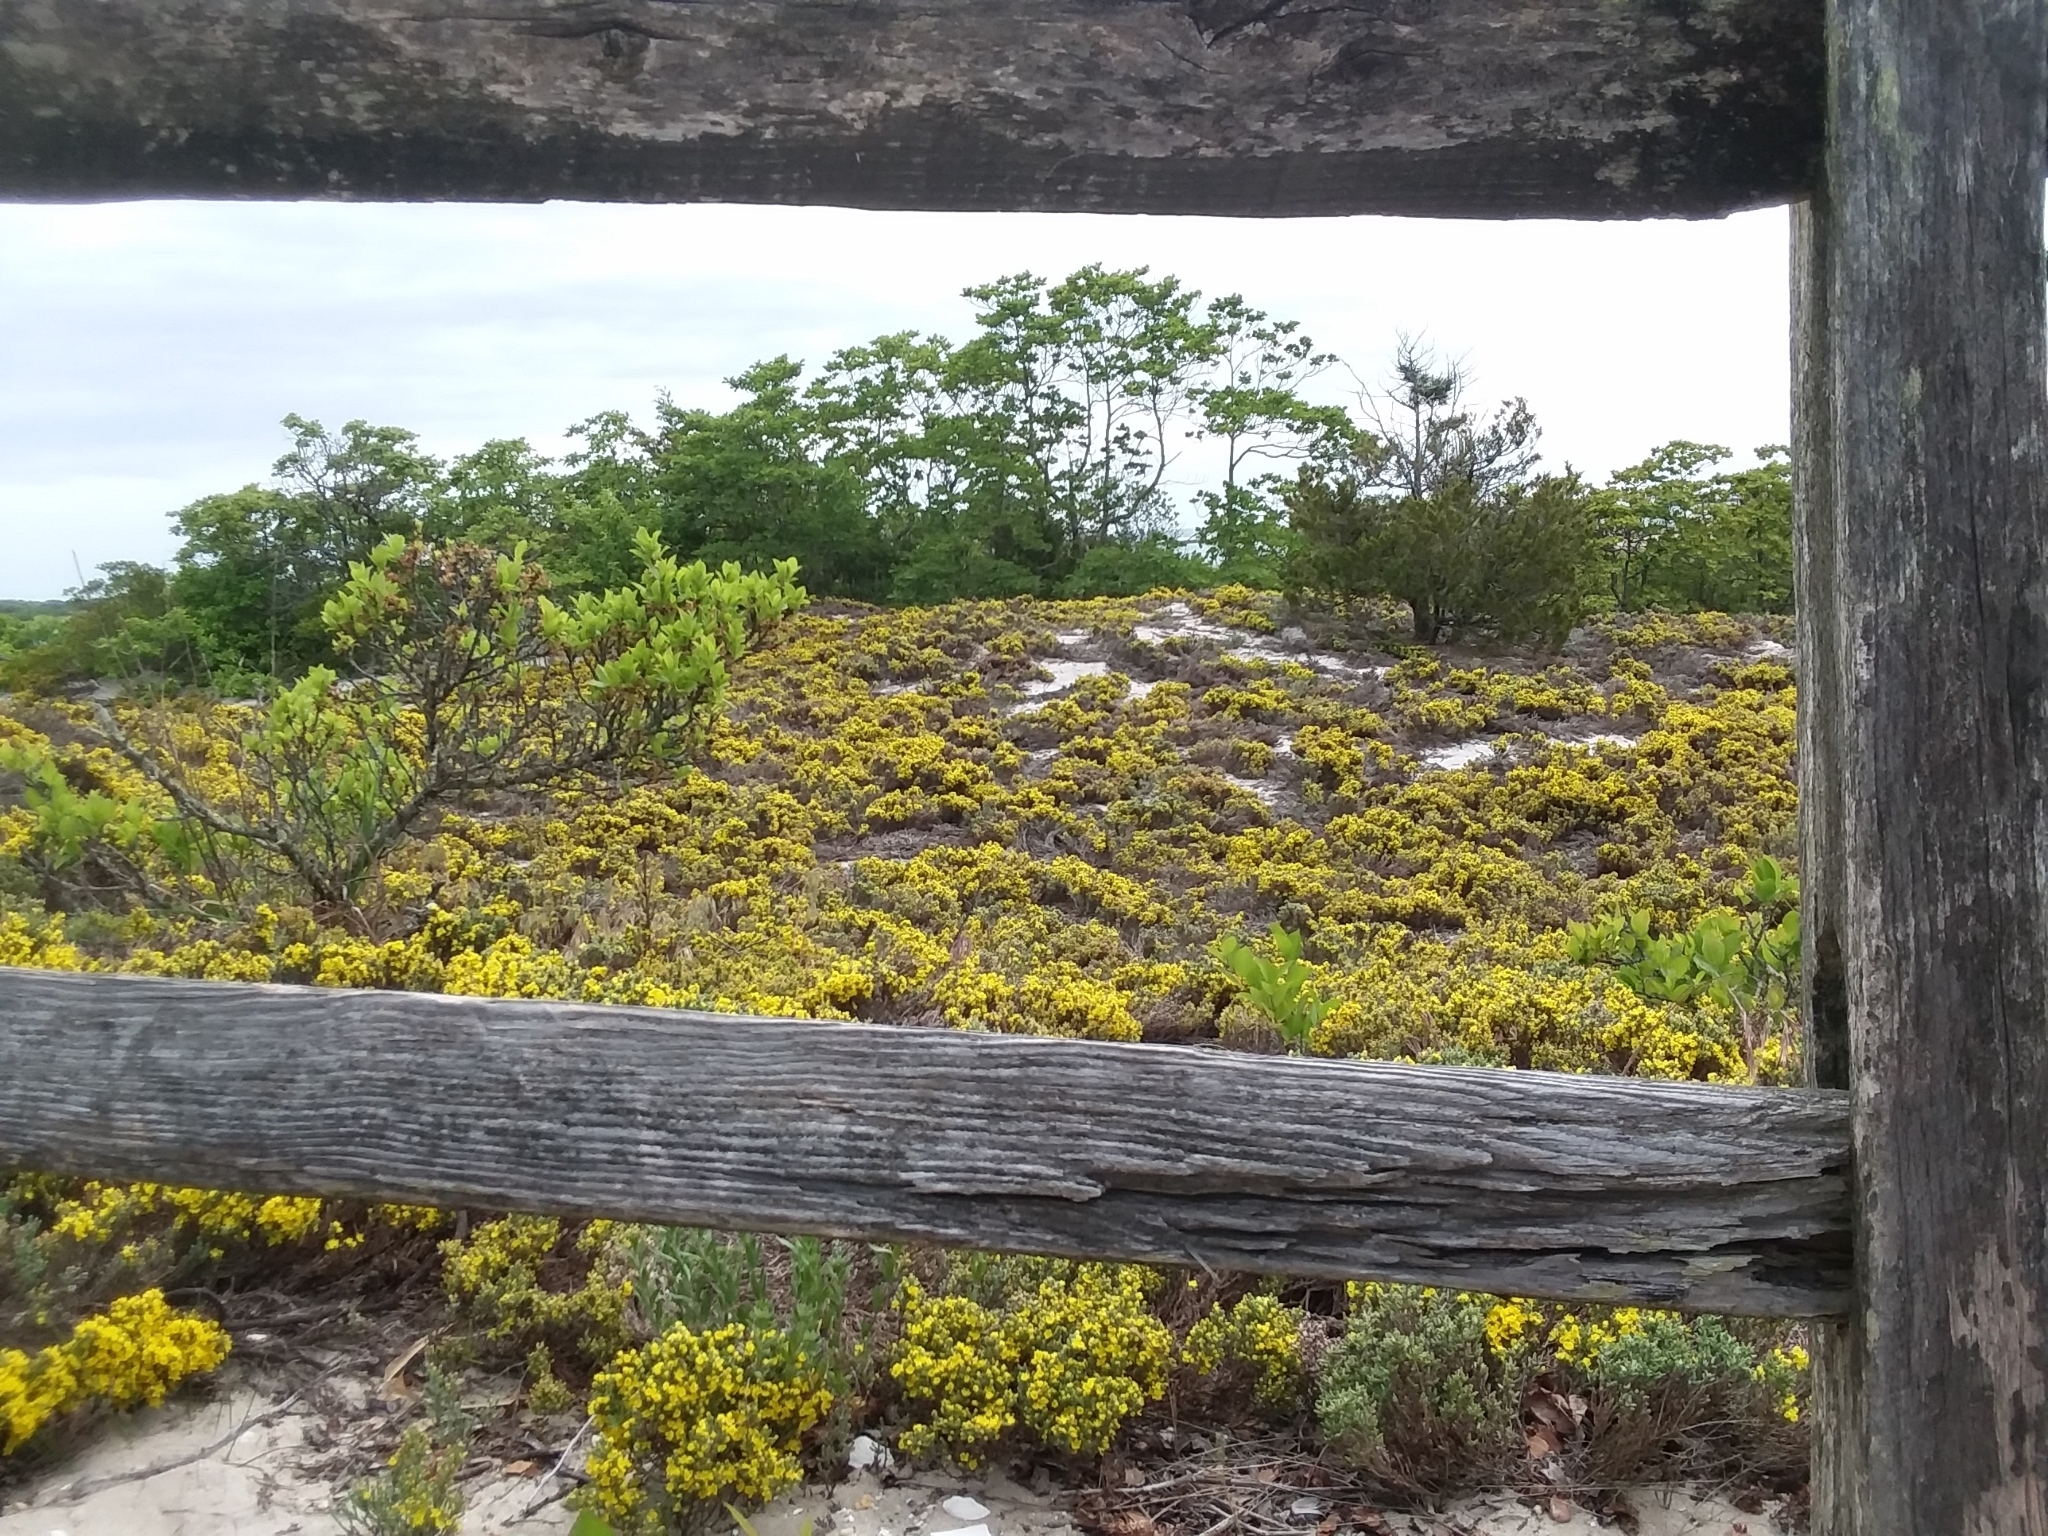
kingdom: Plantae
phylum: Tracheophyta
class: Magnoliopsida
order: Malvales
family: Cistaceae
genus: Hudsonia
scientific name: Hudsonia tomentosa
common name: Beach-heath
